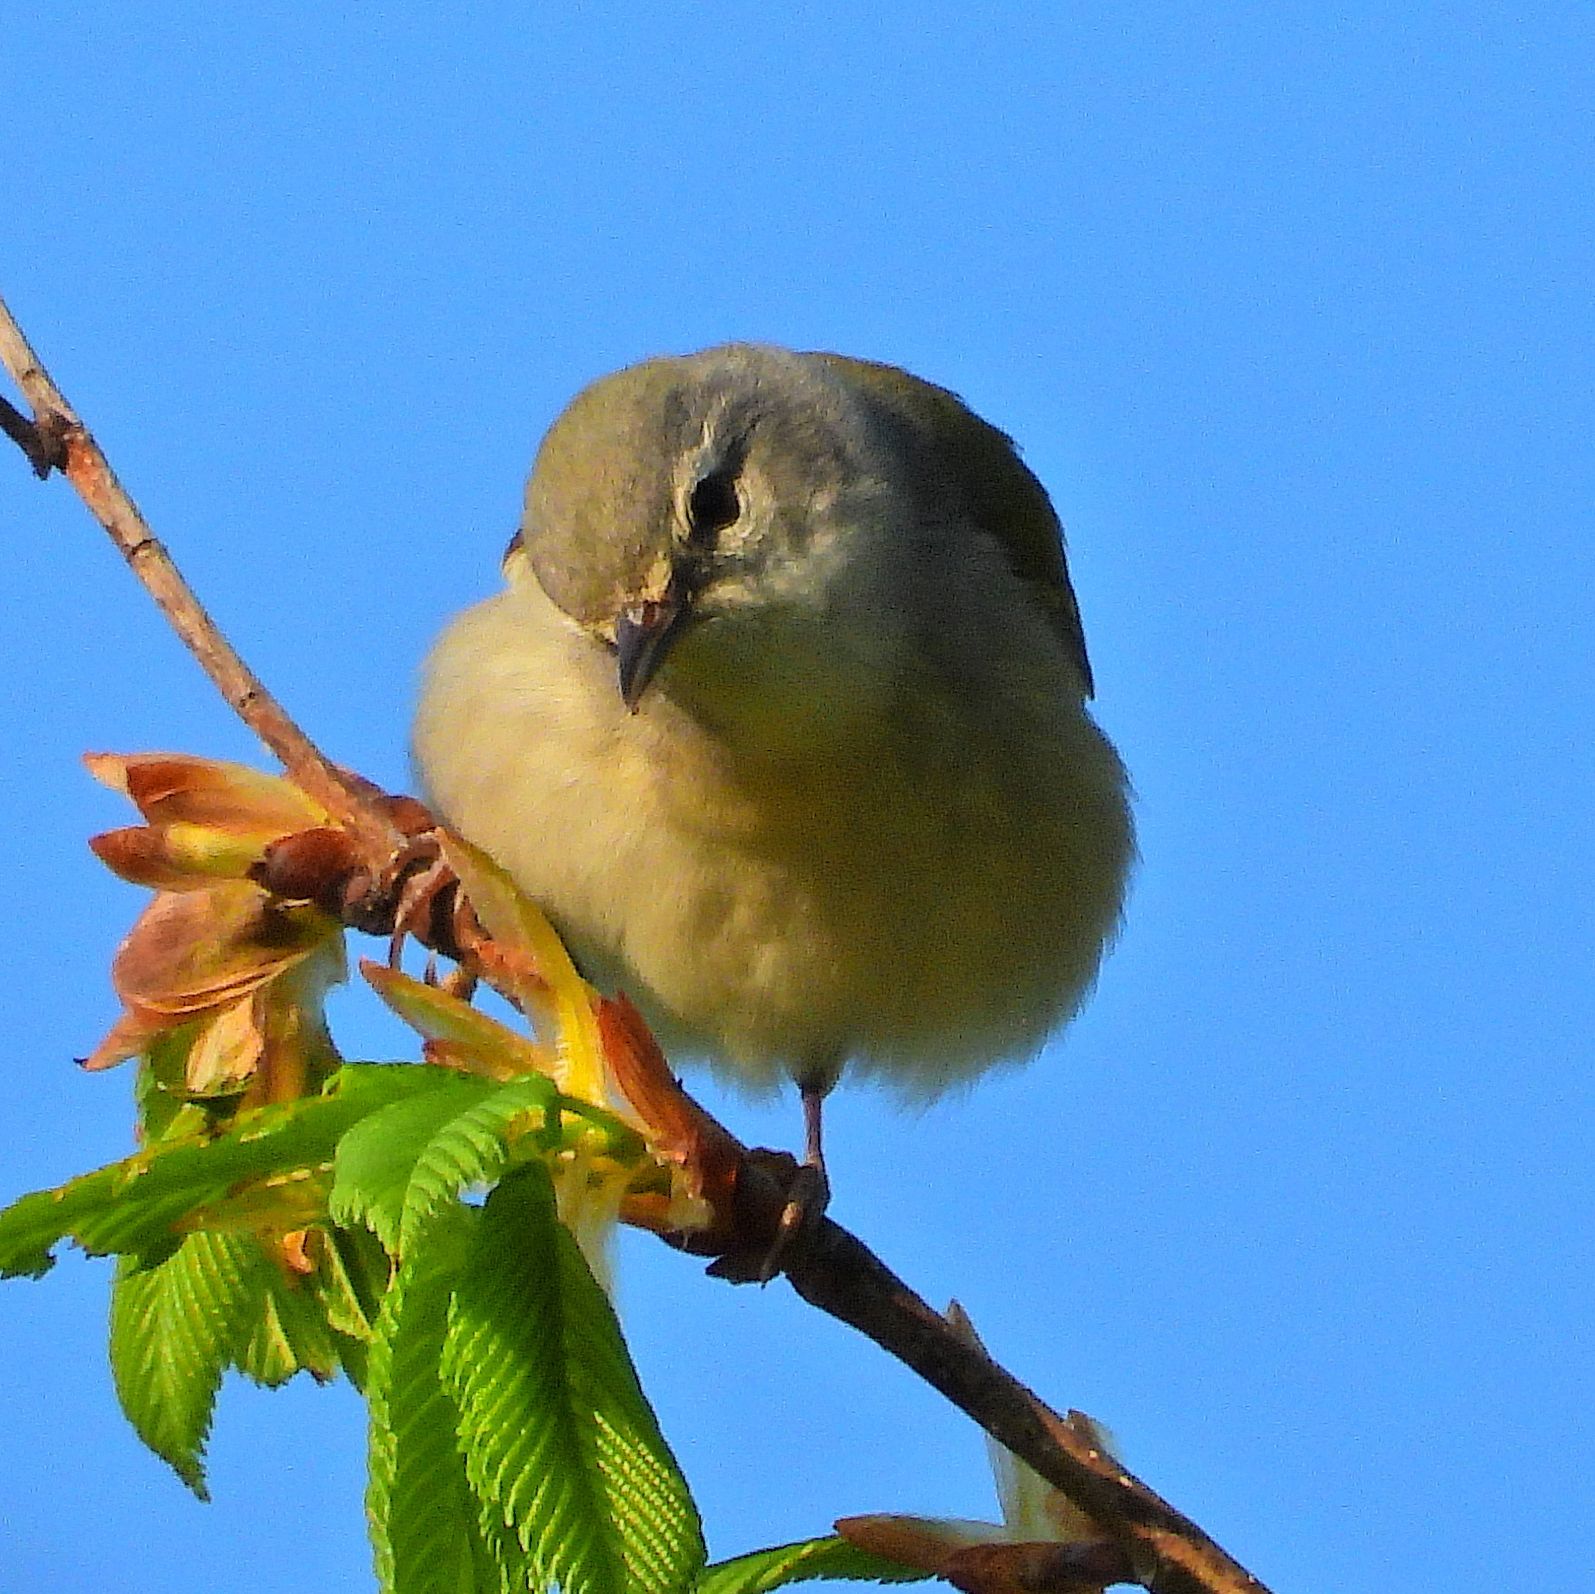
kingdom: Animalia
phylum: Chordata
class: Aves
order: Passeriformes
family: Parulidae
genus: Leiothlypis
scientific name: Leiothlypis peregrina
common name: Tennessee warbler
